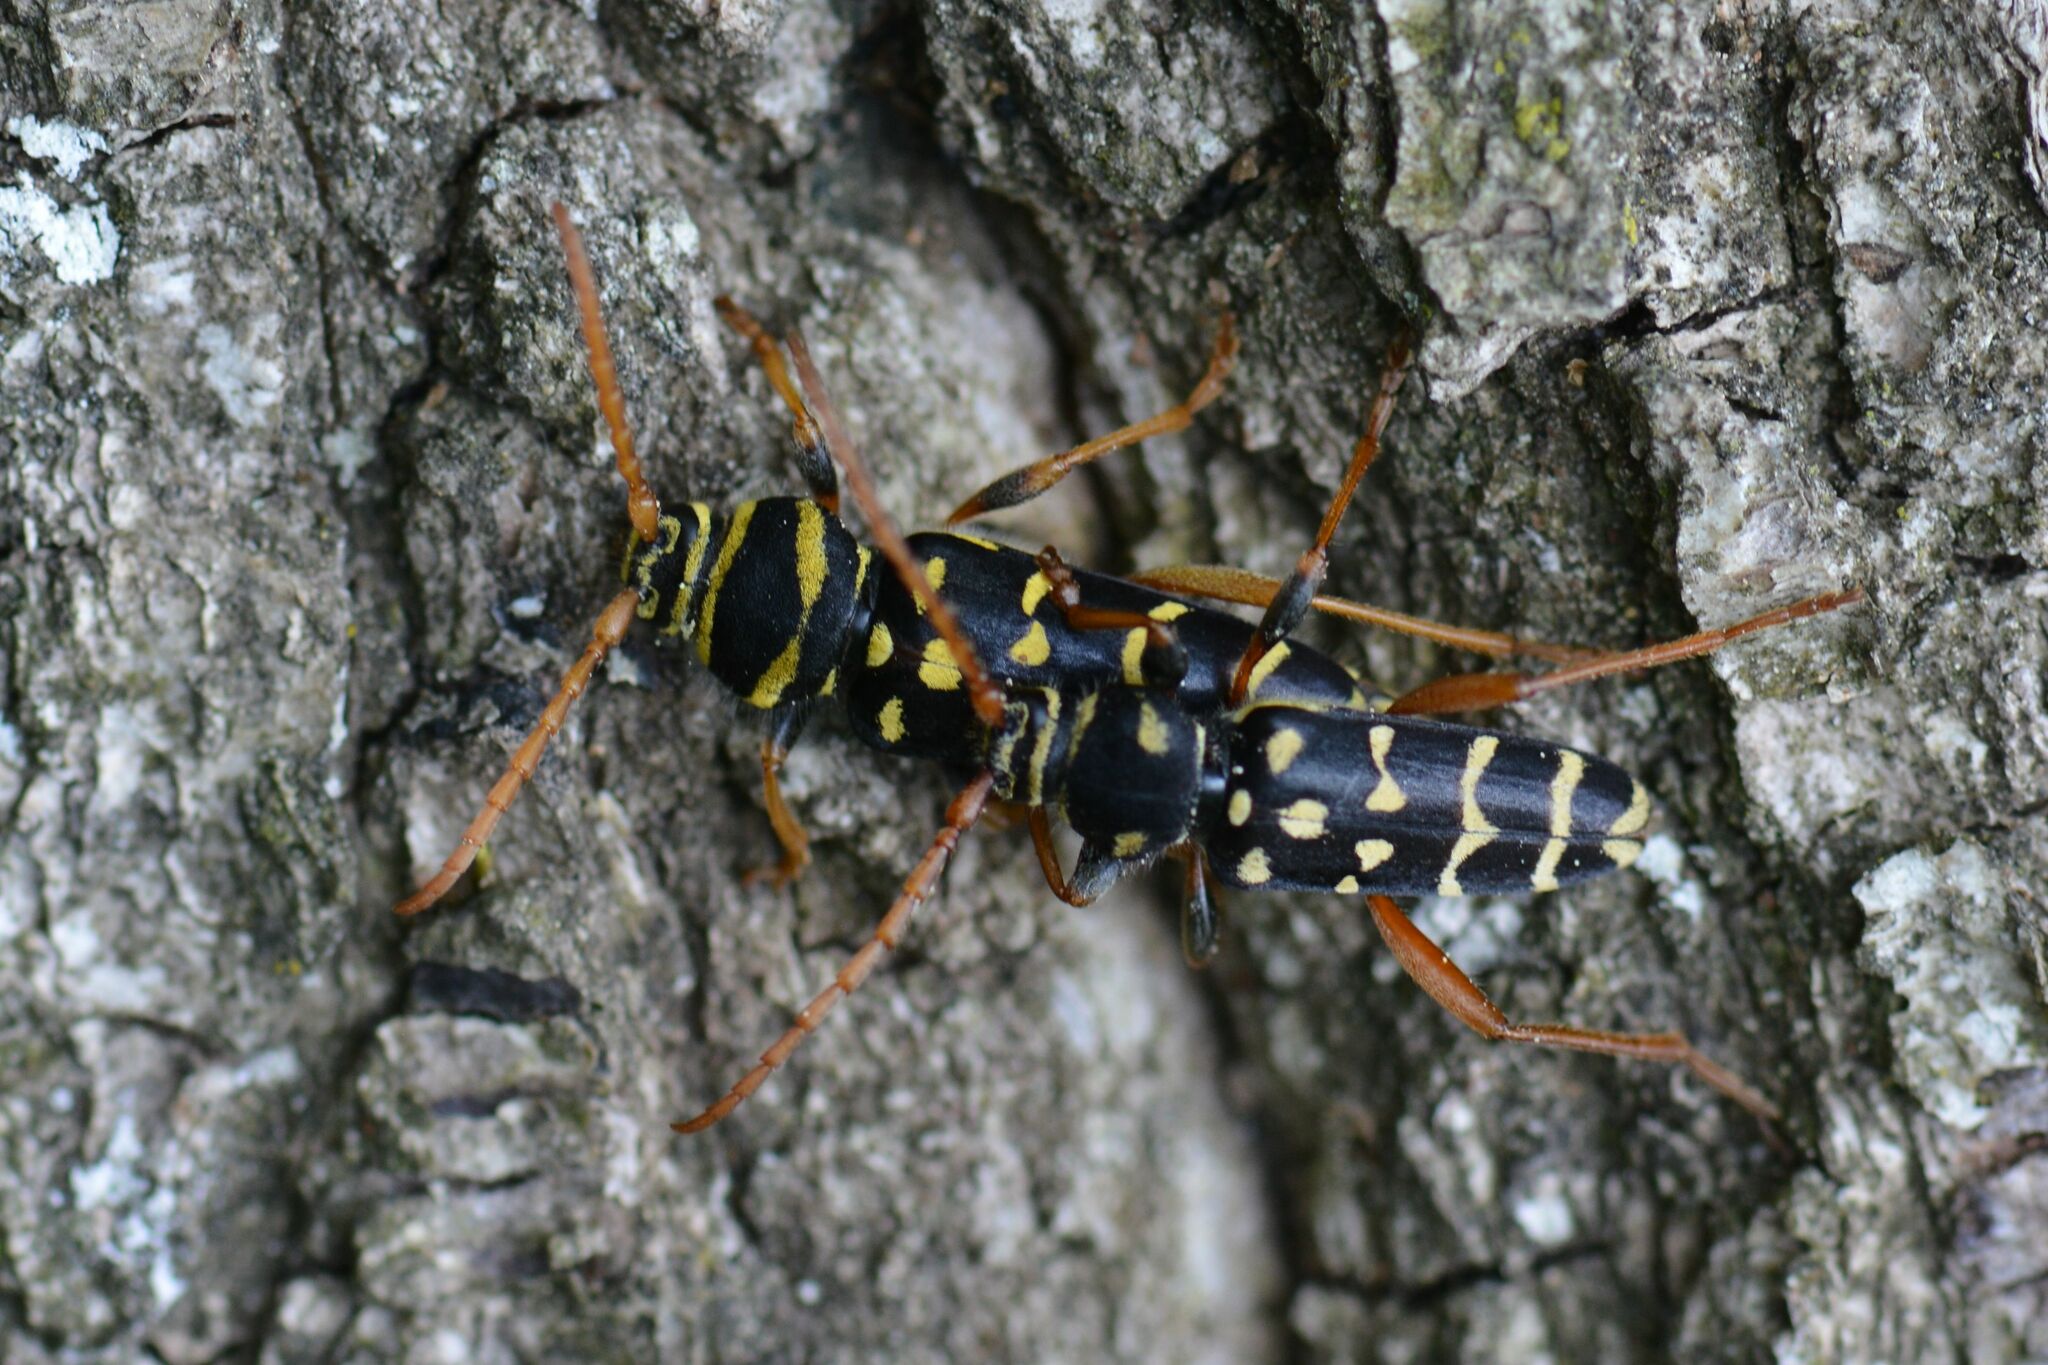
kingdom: Animalia
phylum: Arthropoda
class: Insecta
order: Coleoptera
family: Cerambycidae
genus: Plagionotus
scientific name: Plagionotus arcuatus
